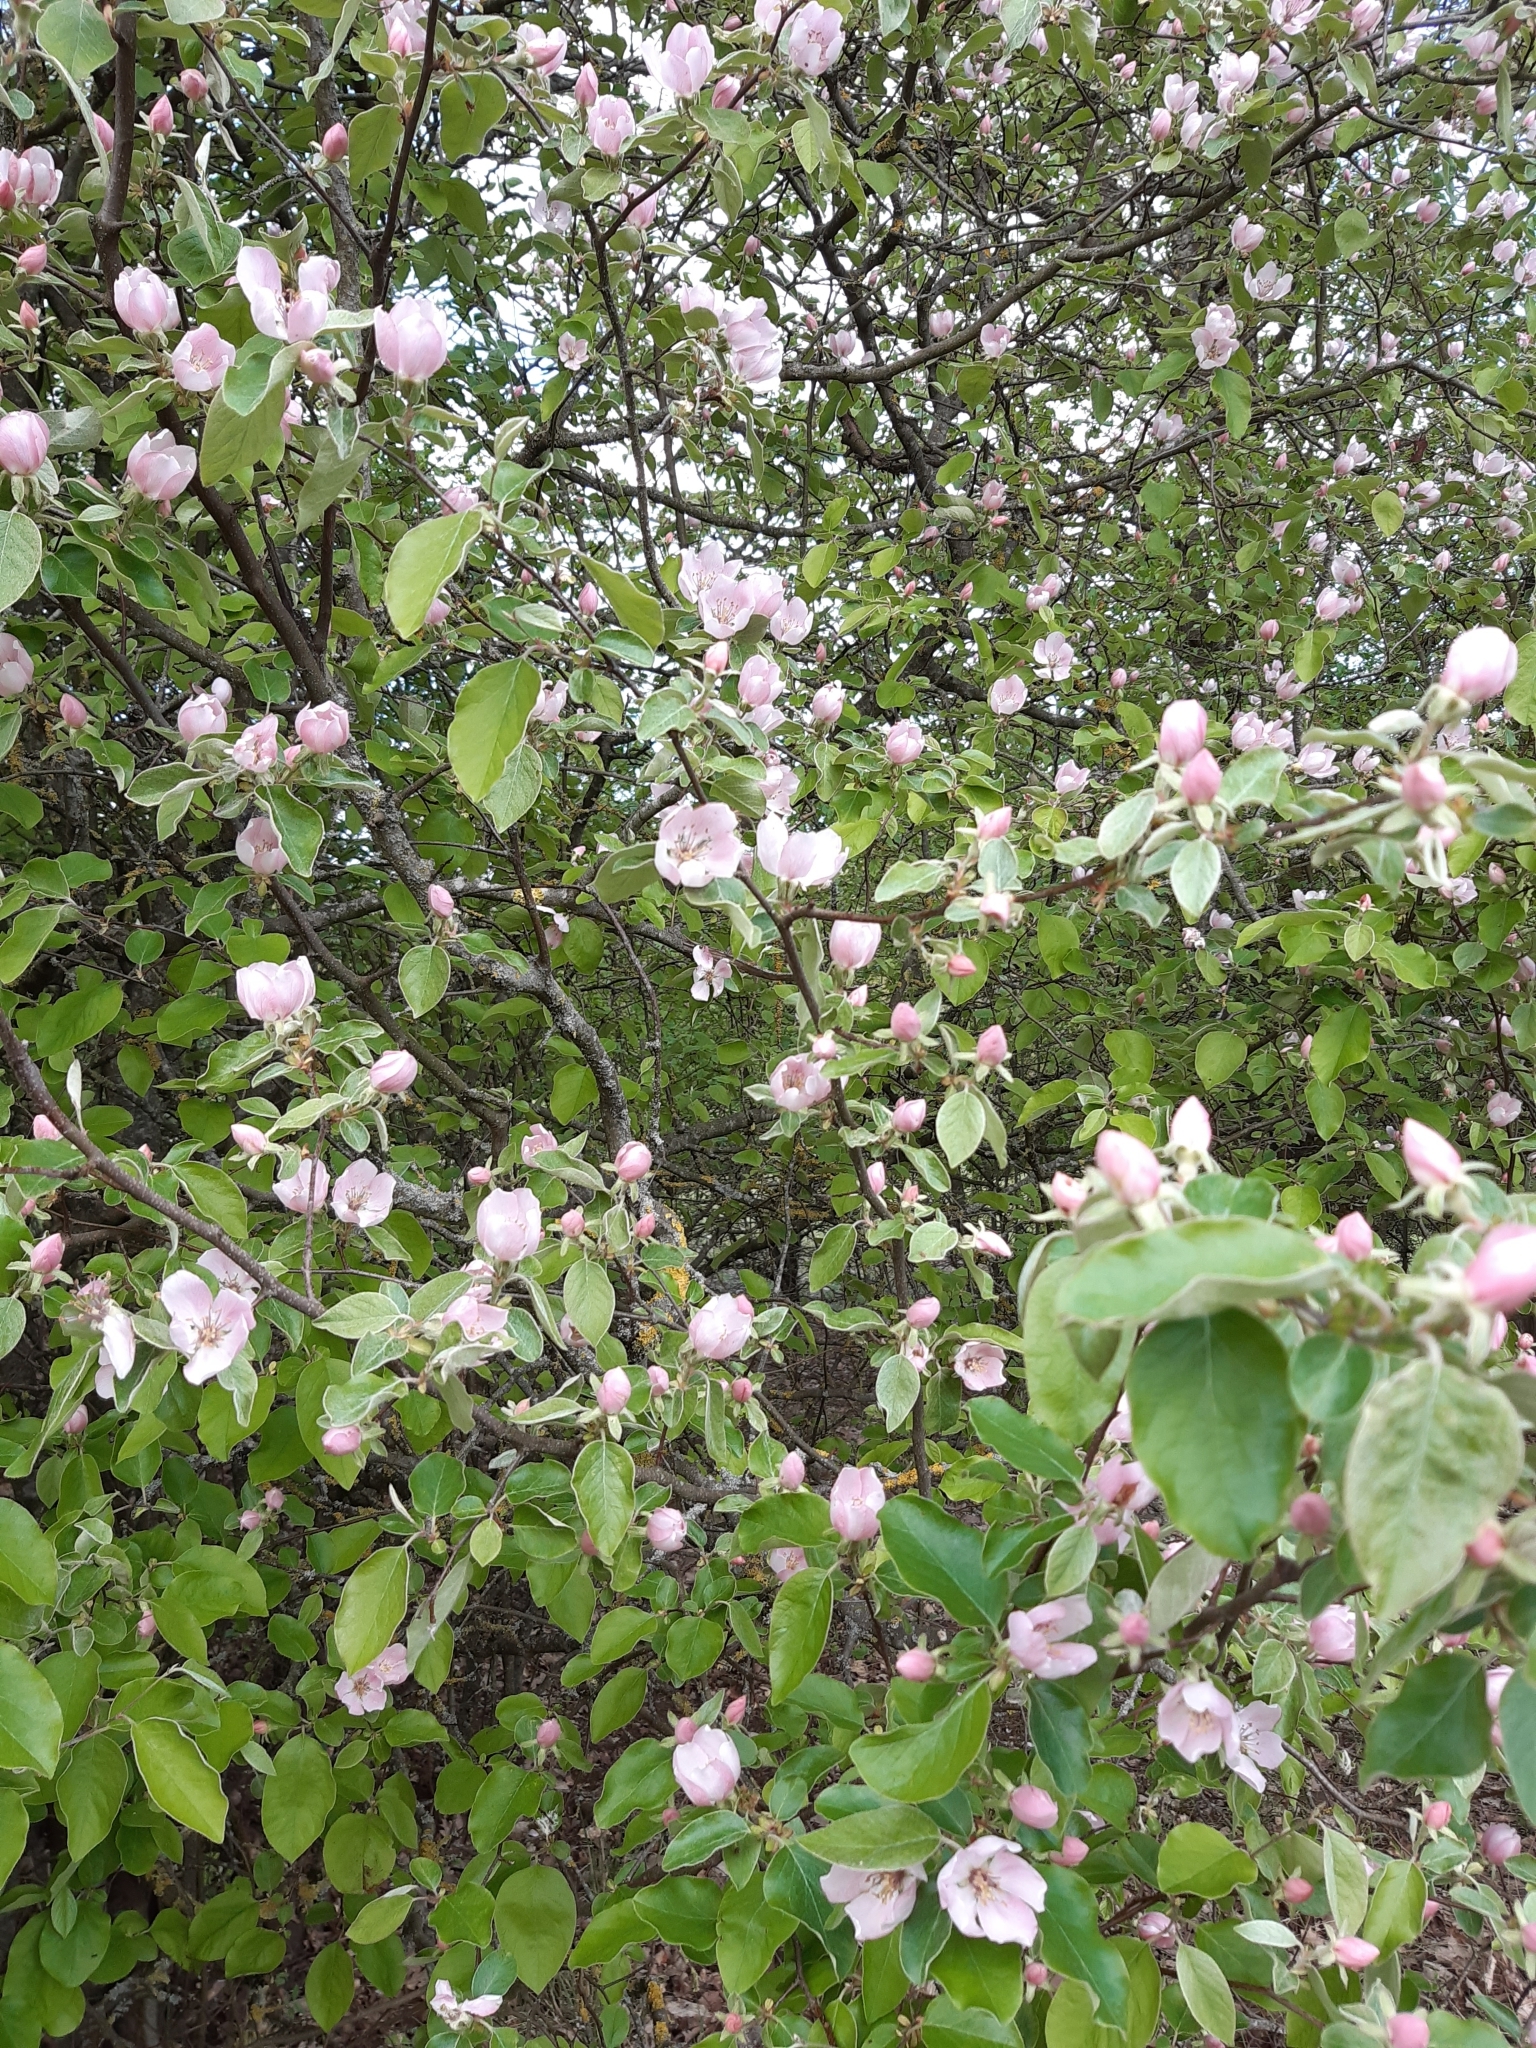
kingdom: Plantae
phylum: Tracheophyta
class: Magnoliopsida
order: Rosales
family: Rosaceae
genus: Cydonia
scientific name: Cydonia oblonga
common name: Quince
